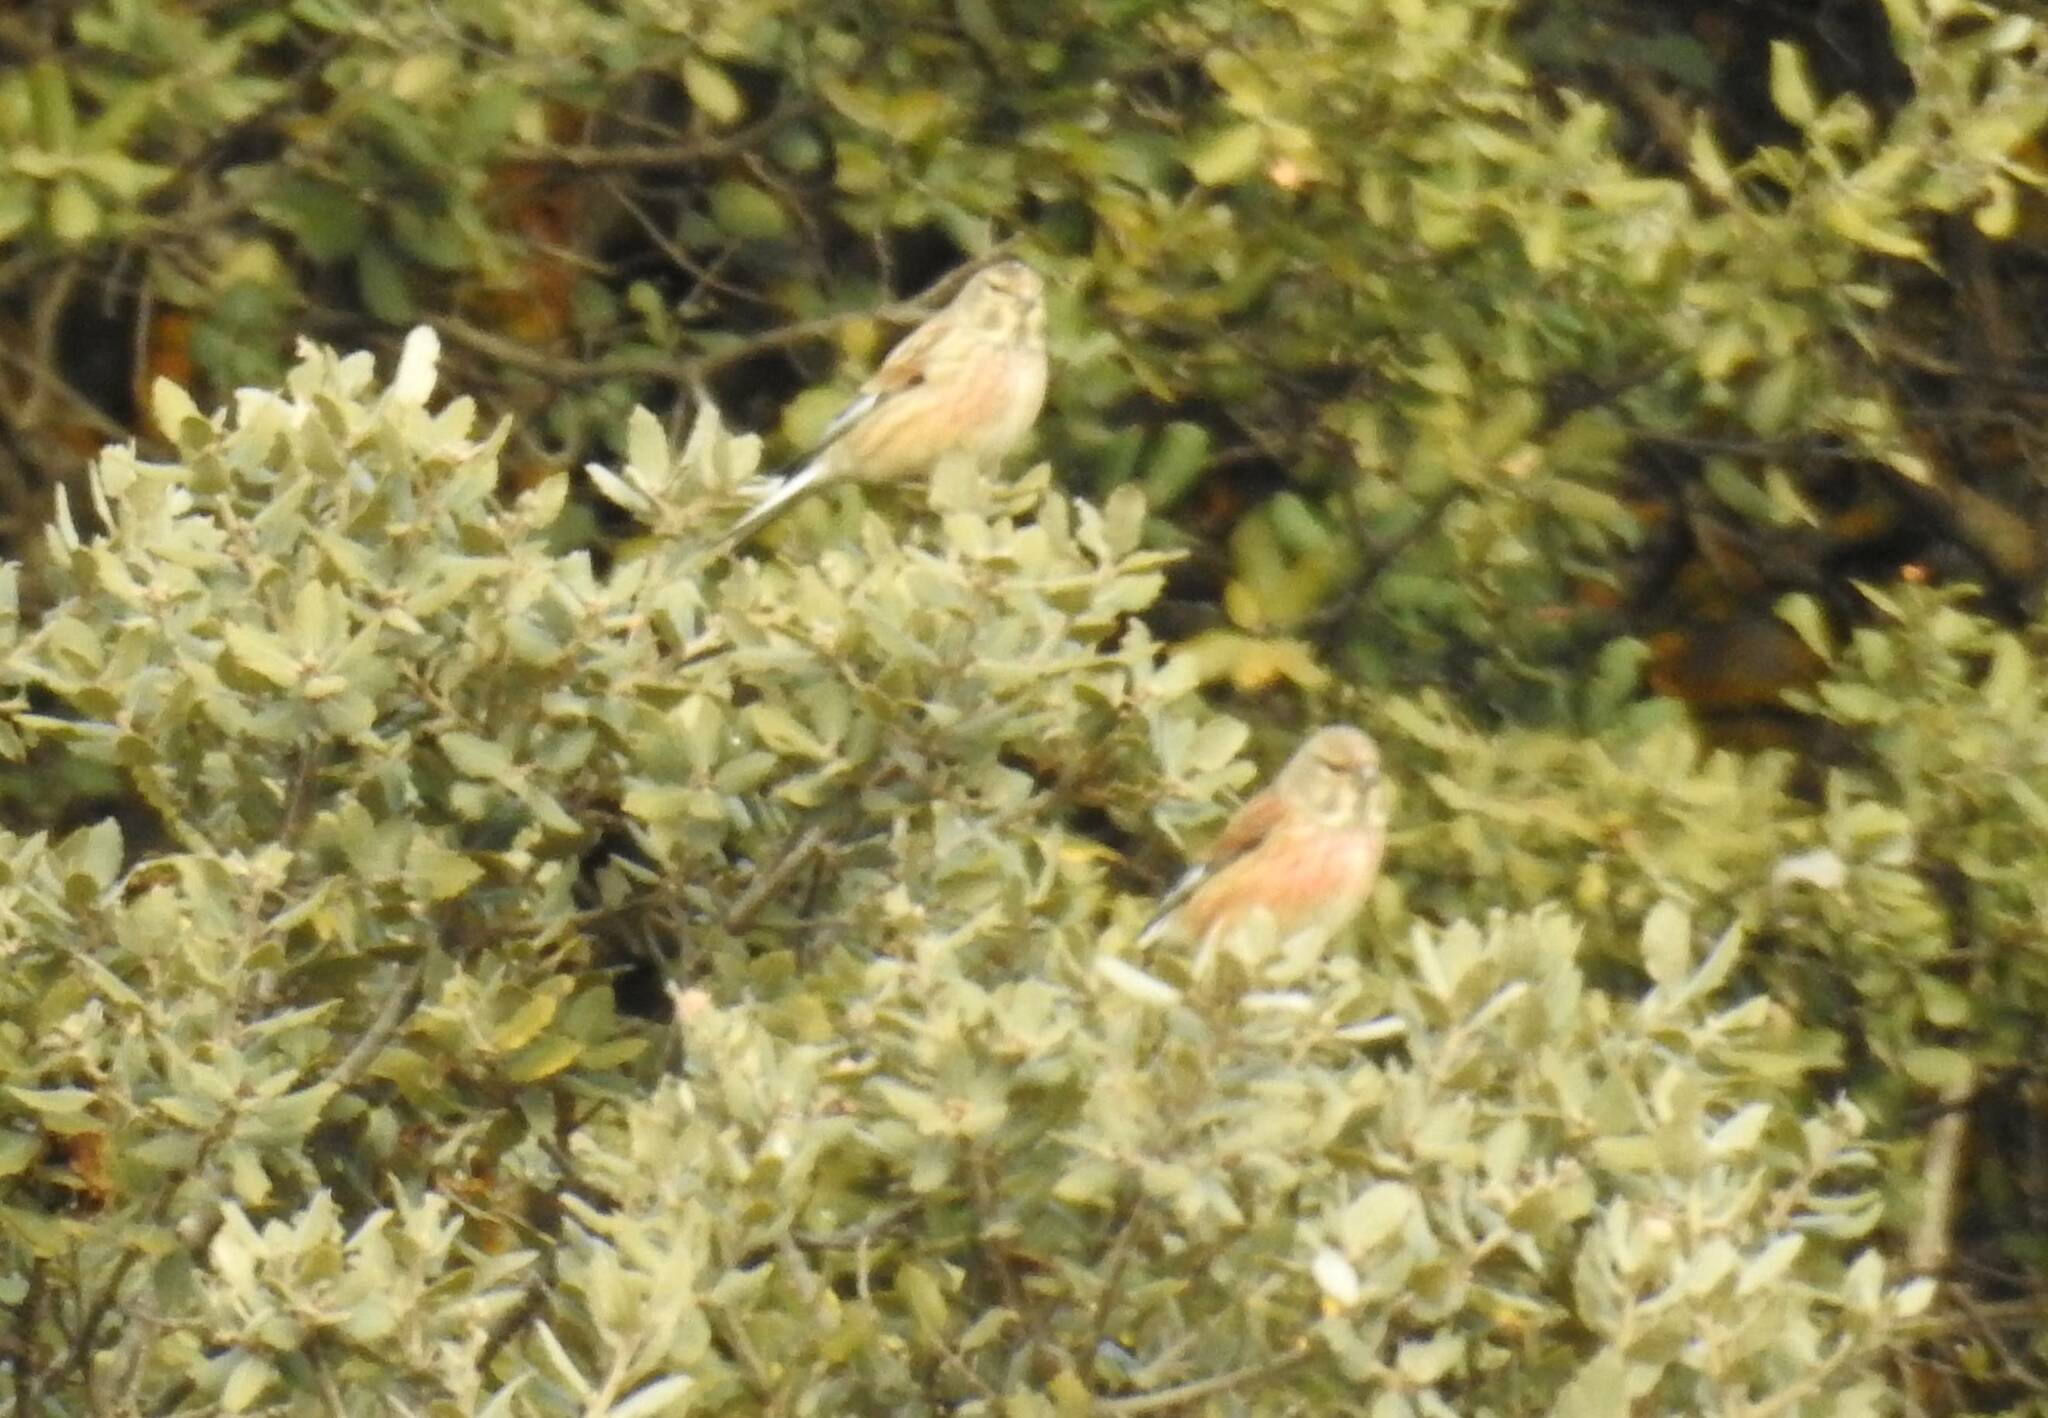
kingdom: Animalia
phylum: Chordata
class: Aves
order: Passeriformes
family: Fringillidae
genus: Linaria
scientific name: Linaria cannabina
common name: Common linnet
